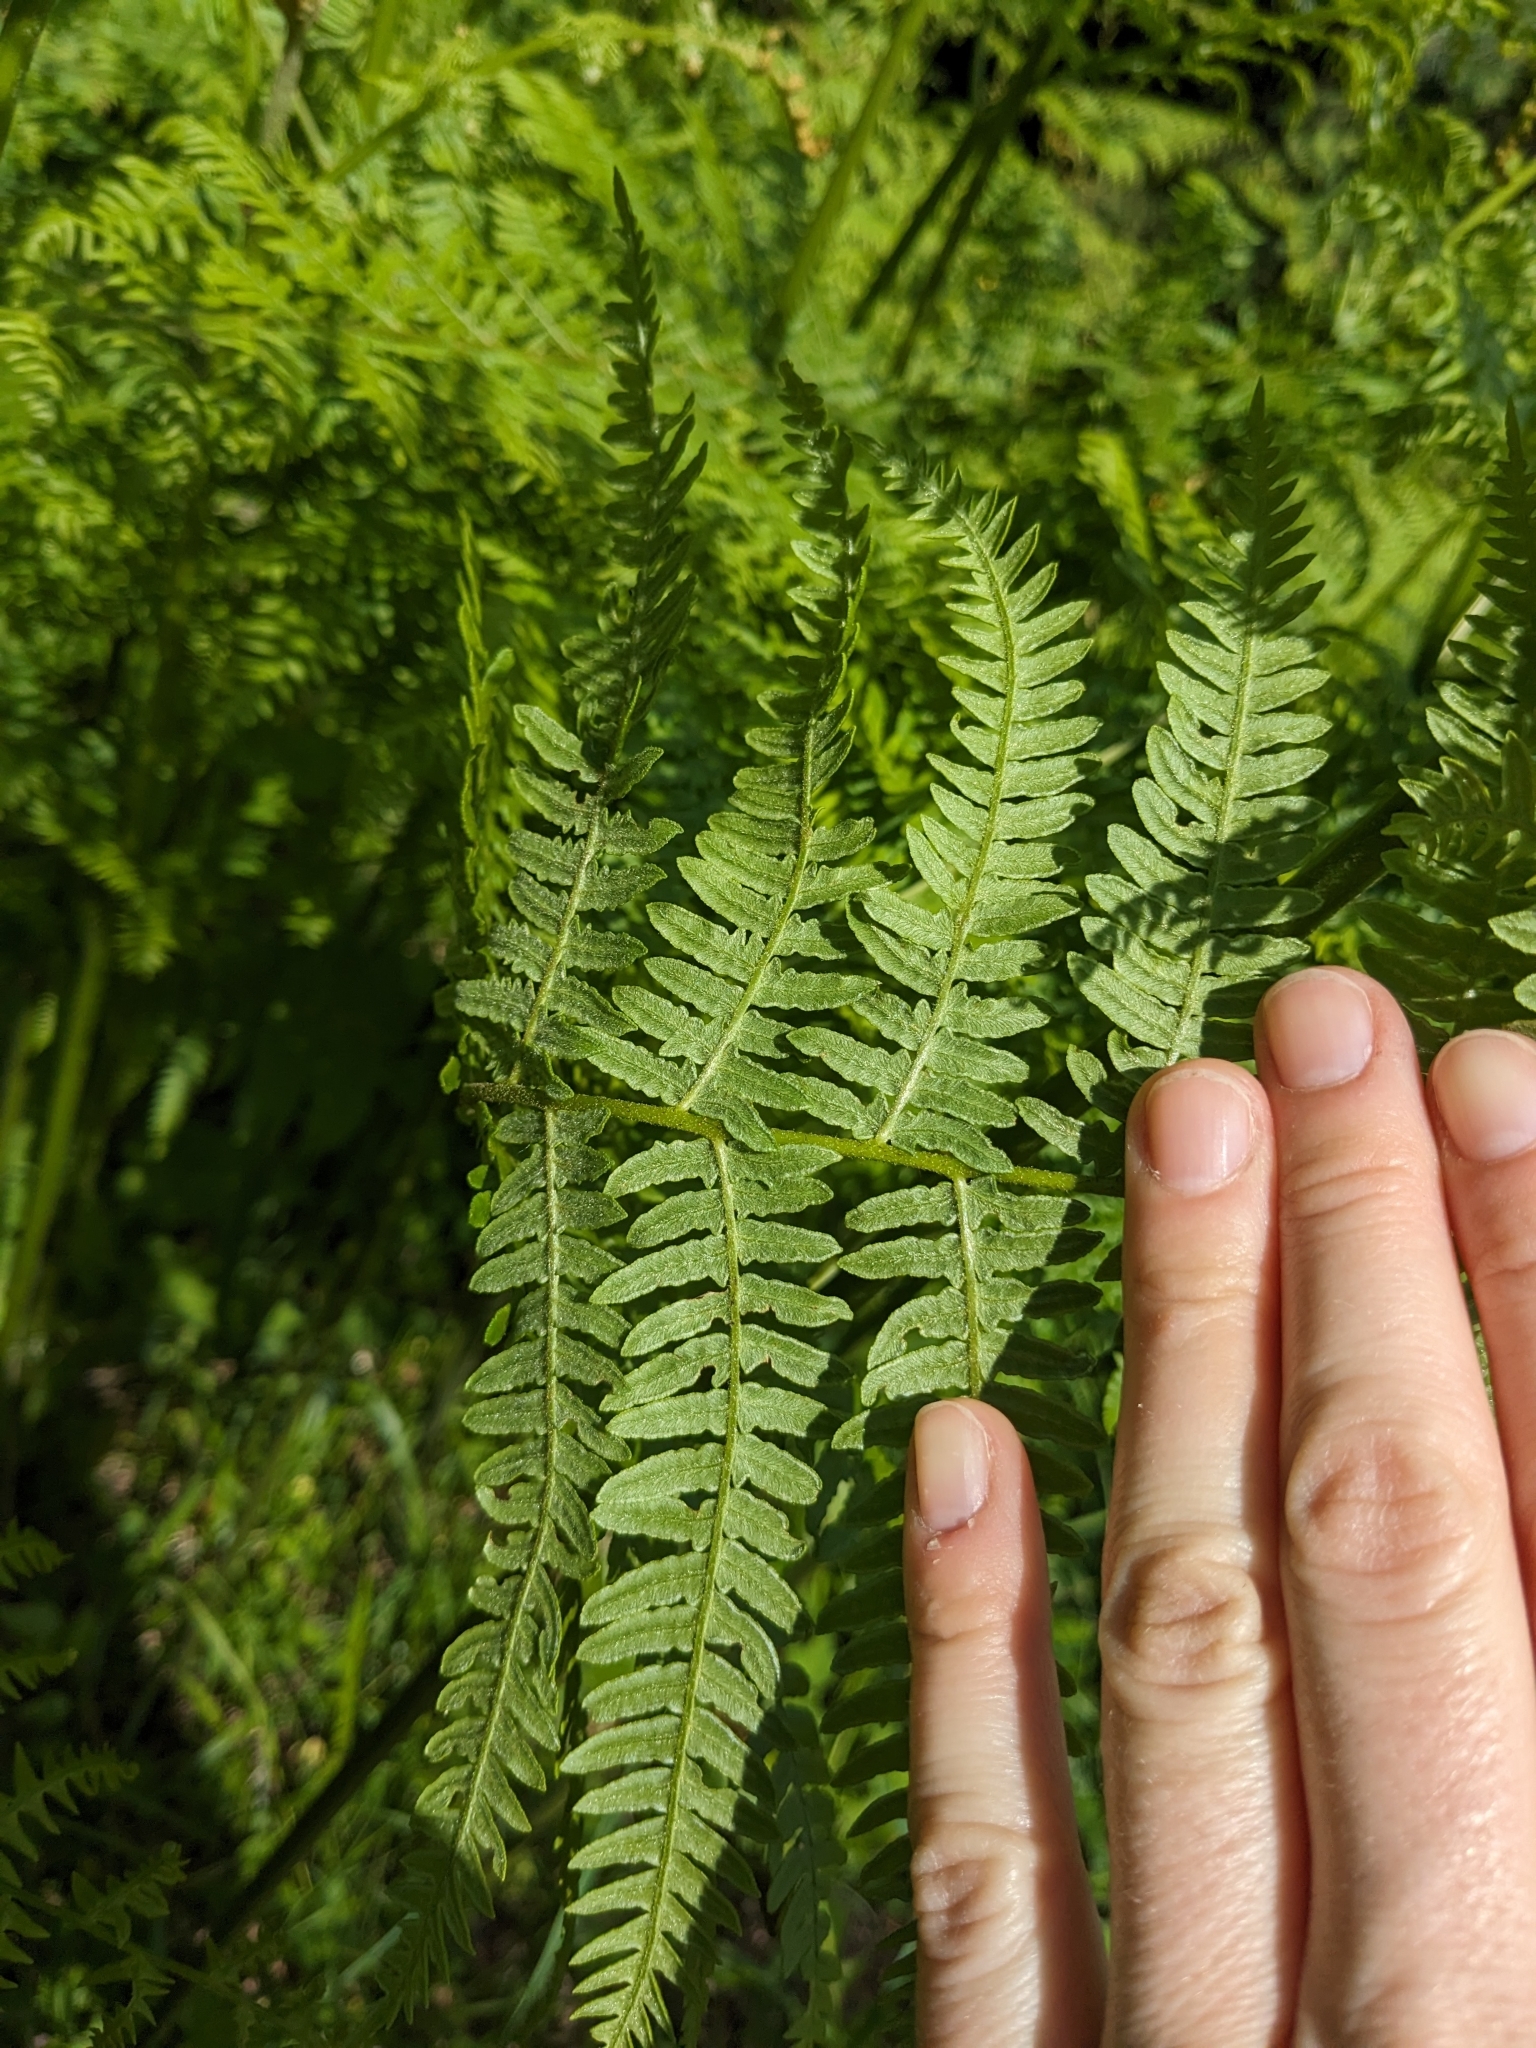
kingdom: Plantae
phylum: Tracheophyta
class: Polypodiopsida
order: Polypodiales
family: Dennstaedtiaceae
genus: Pteridium
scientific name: Pteridium aquilinum
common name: Bracken
